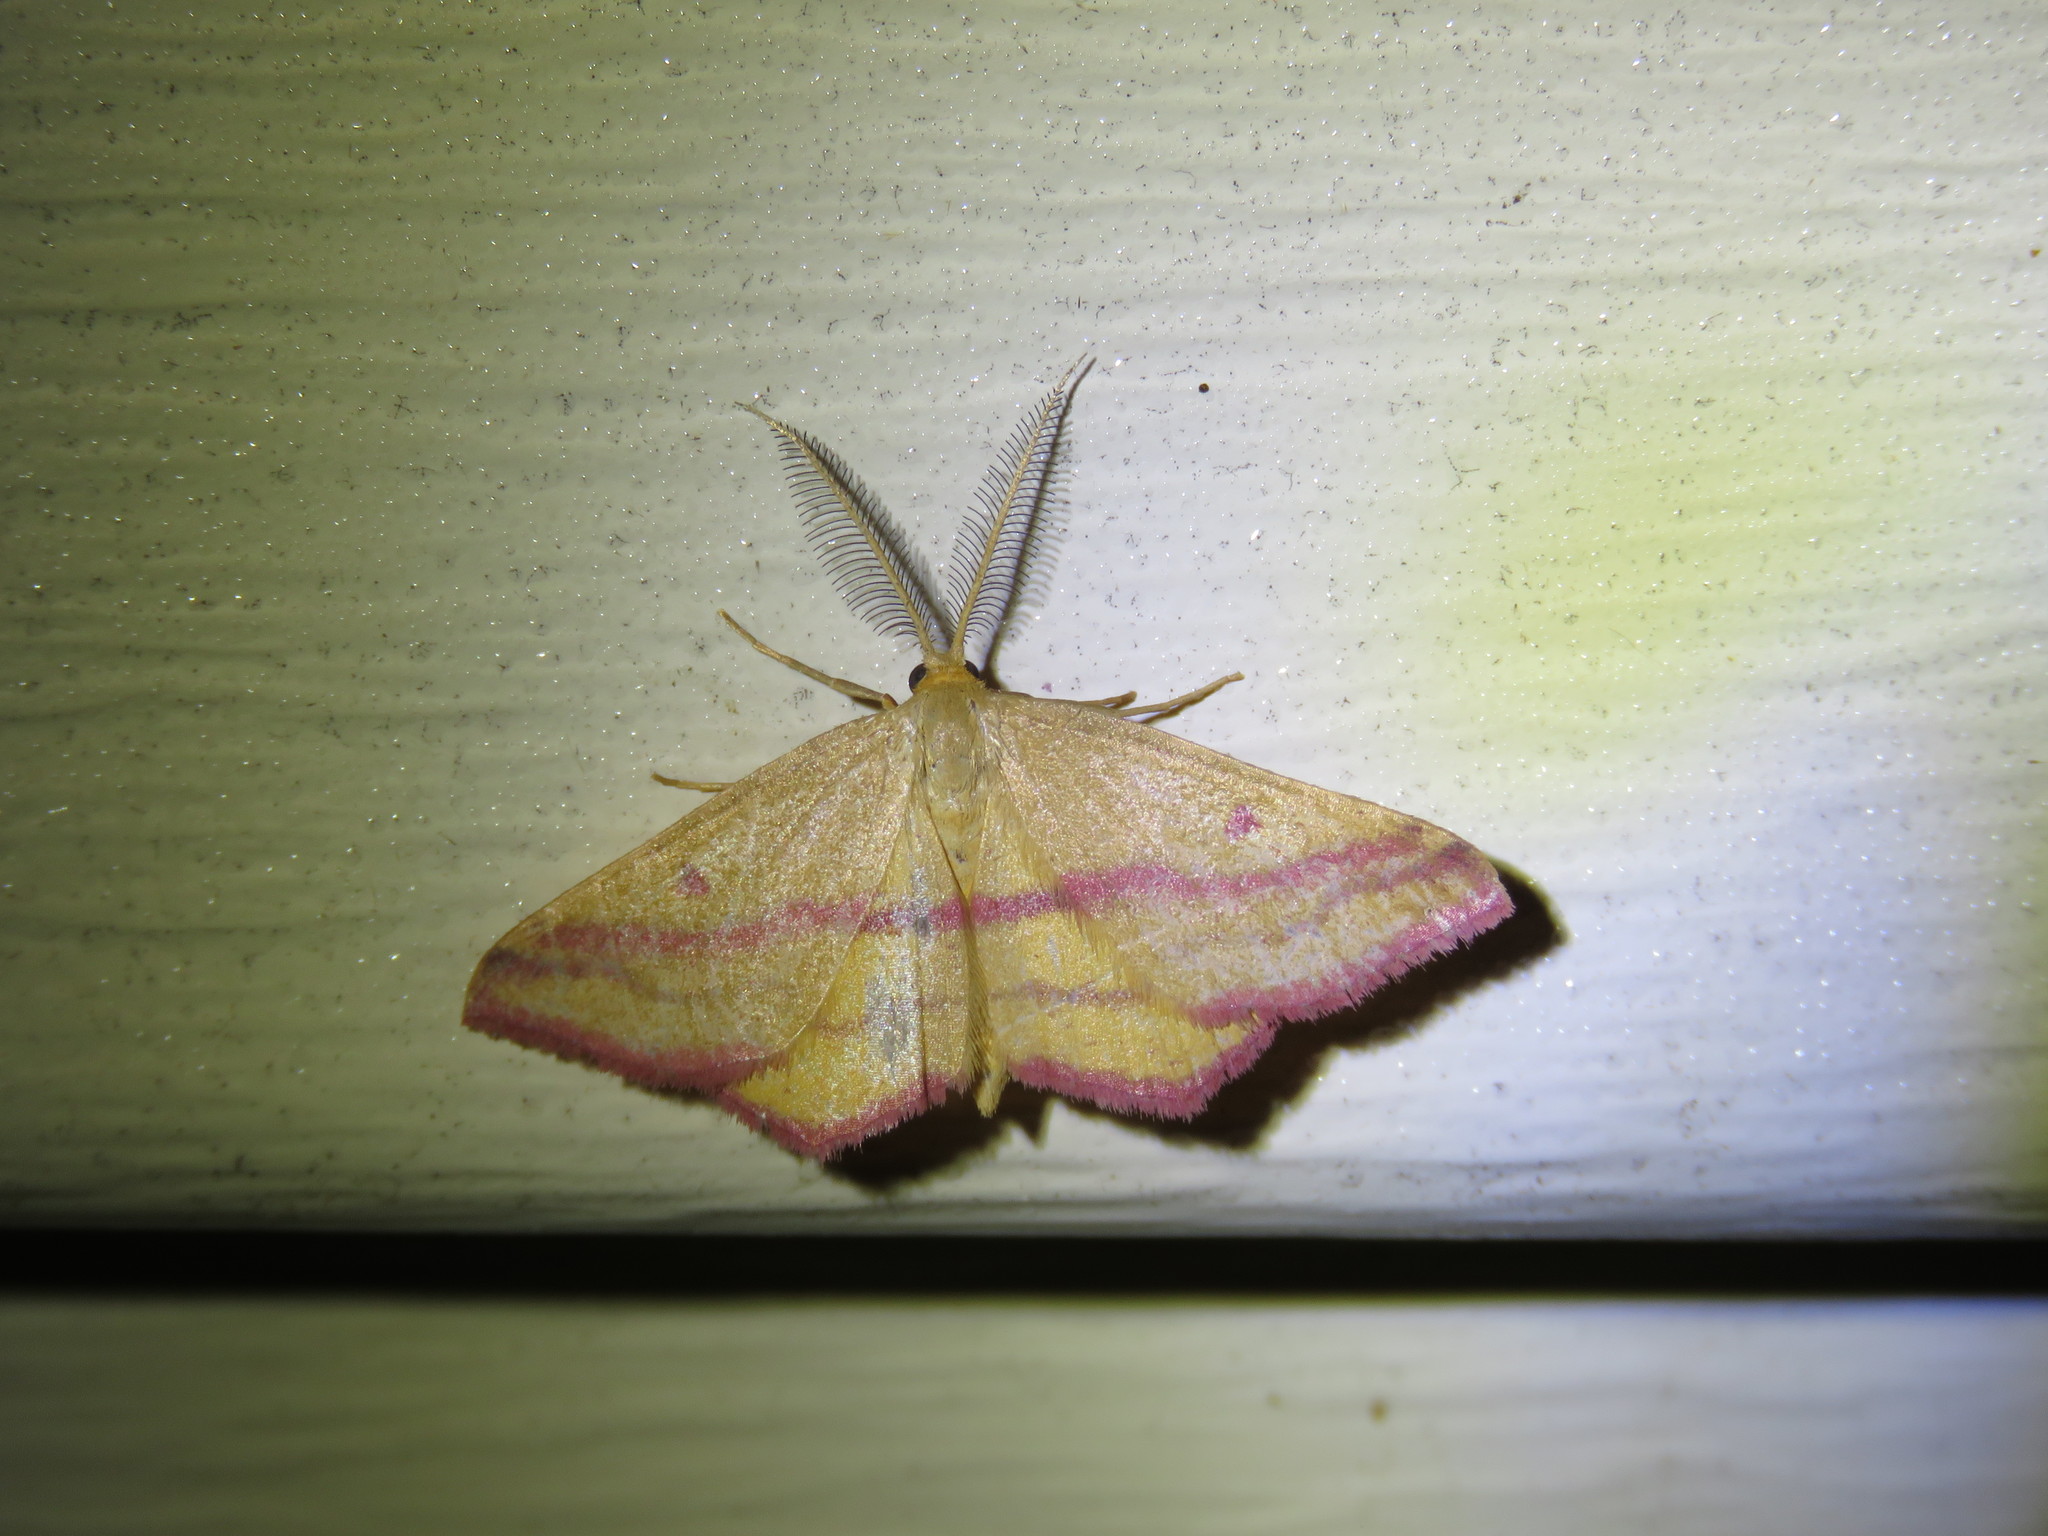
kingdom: Animalia
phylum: Arthropoda
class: Insecta
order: Lepidoptera
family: Geometridae
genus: Haematopis
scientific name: Haematopis grataria
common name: Chickweed geometer
